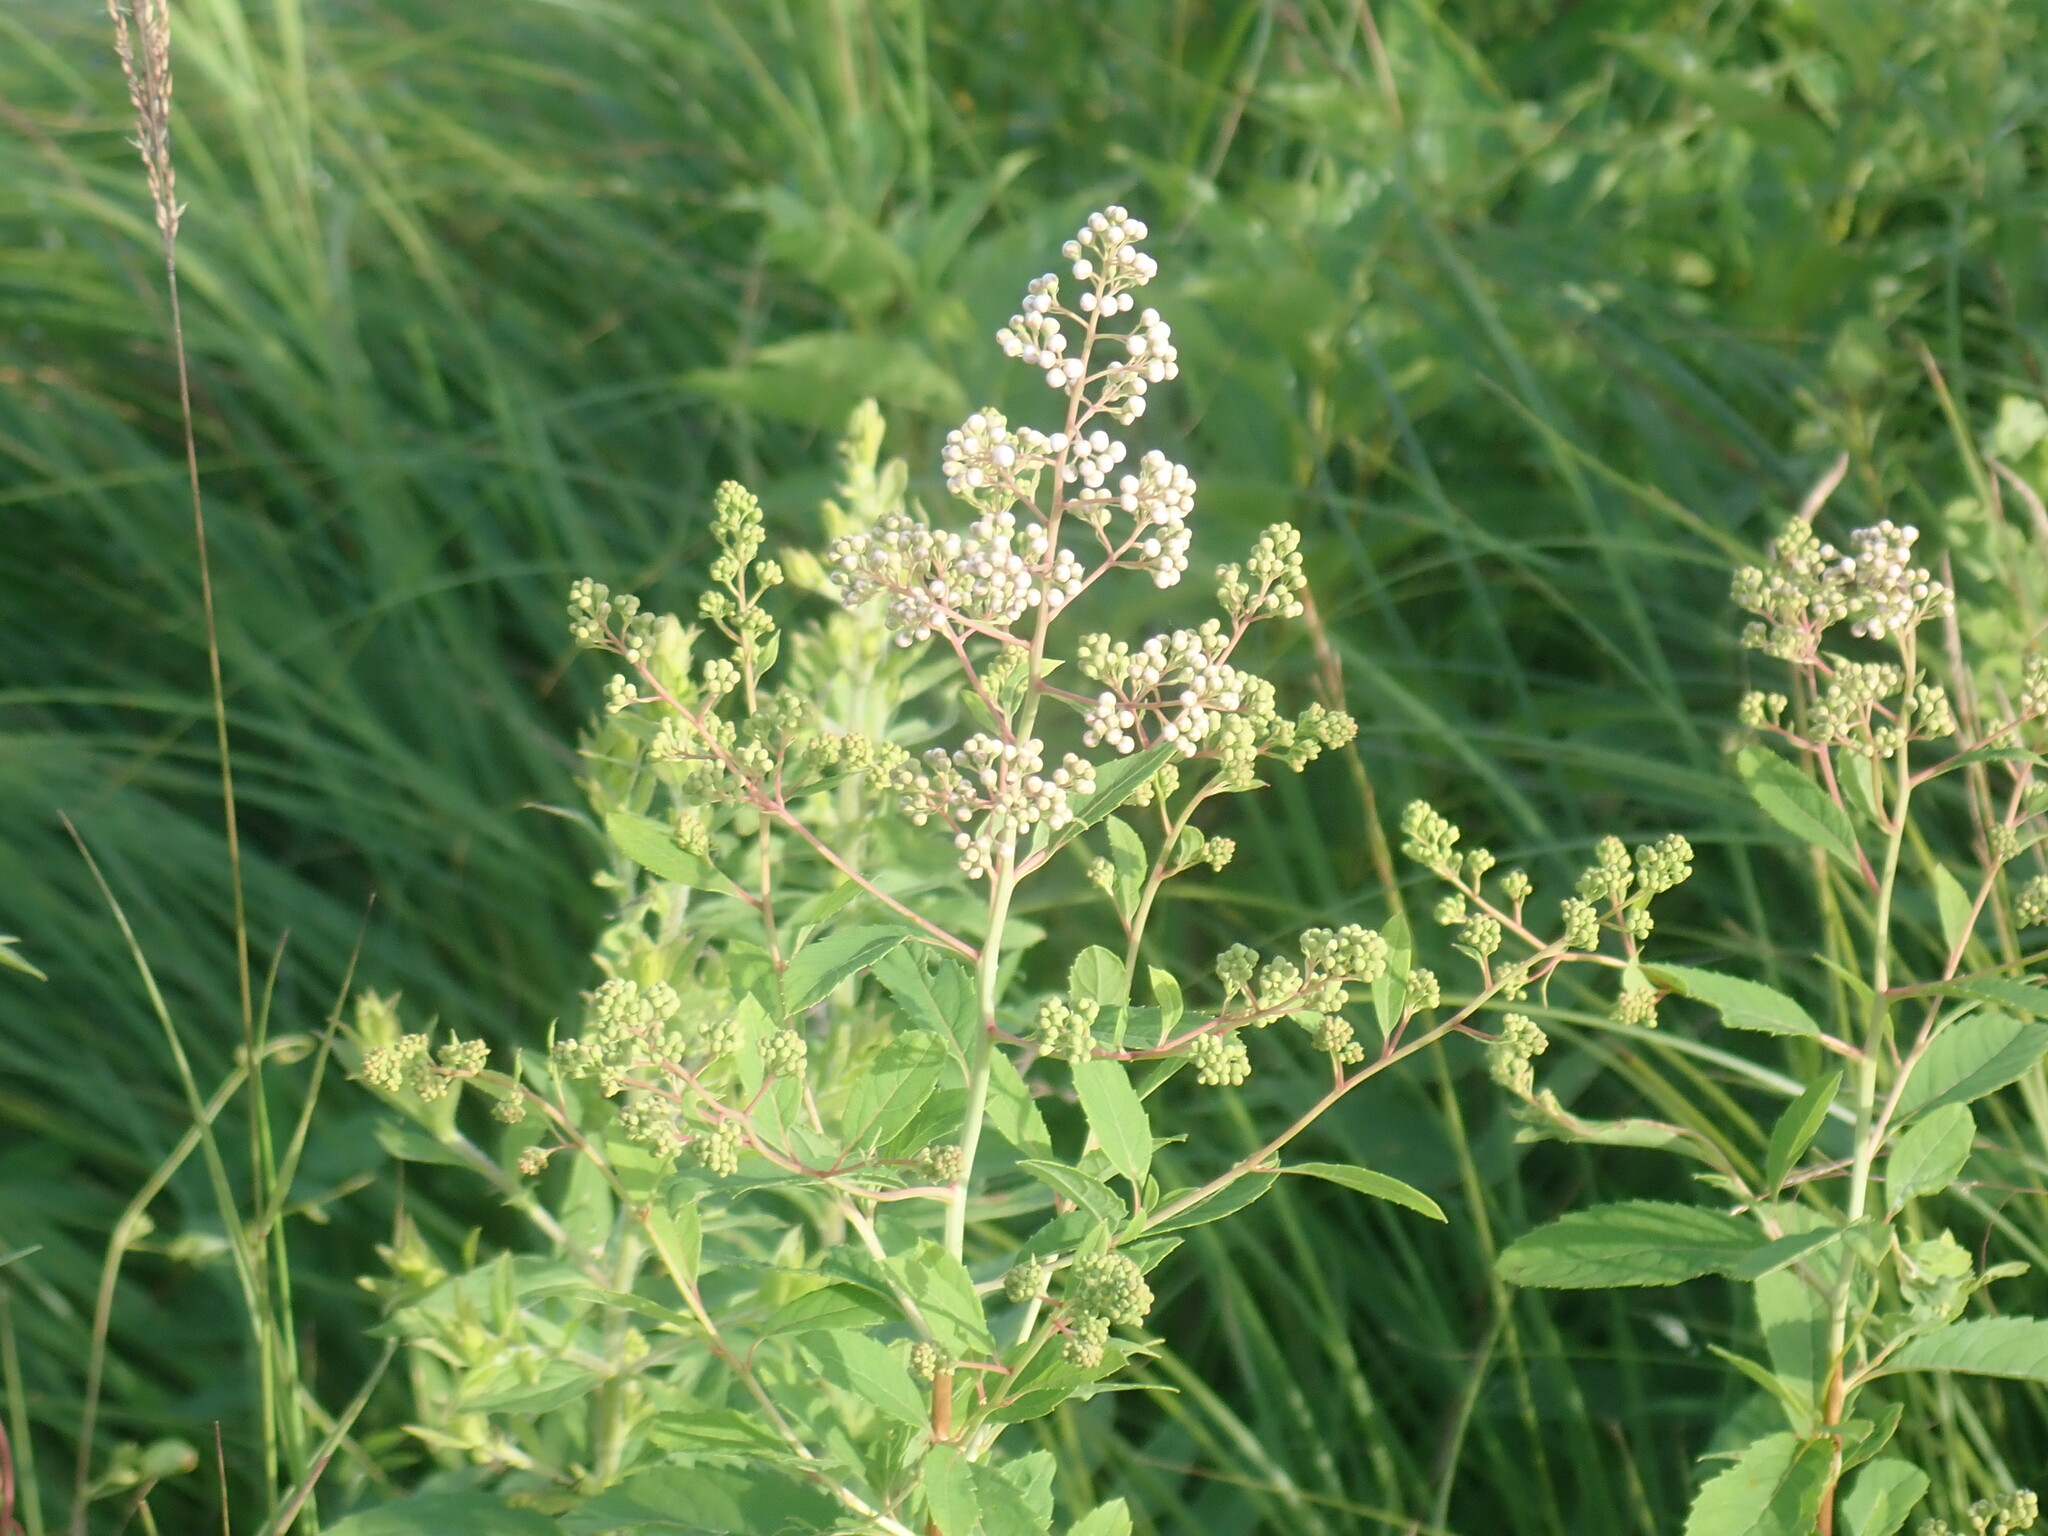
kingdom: Plantae
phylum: Tracheophyta
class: Magnoliopsida
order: Rosales
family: Rosaceae
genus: Spiraea
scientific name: Spiraea alba
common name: Pale bridewort
